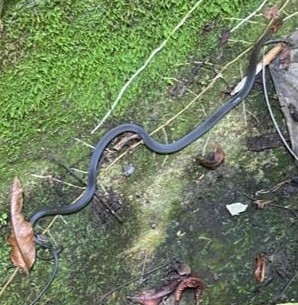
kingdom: Animalia
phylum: Chordata
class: Squamata
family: Colubridae
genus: Amastridium
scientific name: Amastridium sapperi
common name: Rusty-headed snake
